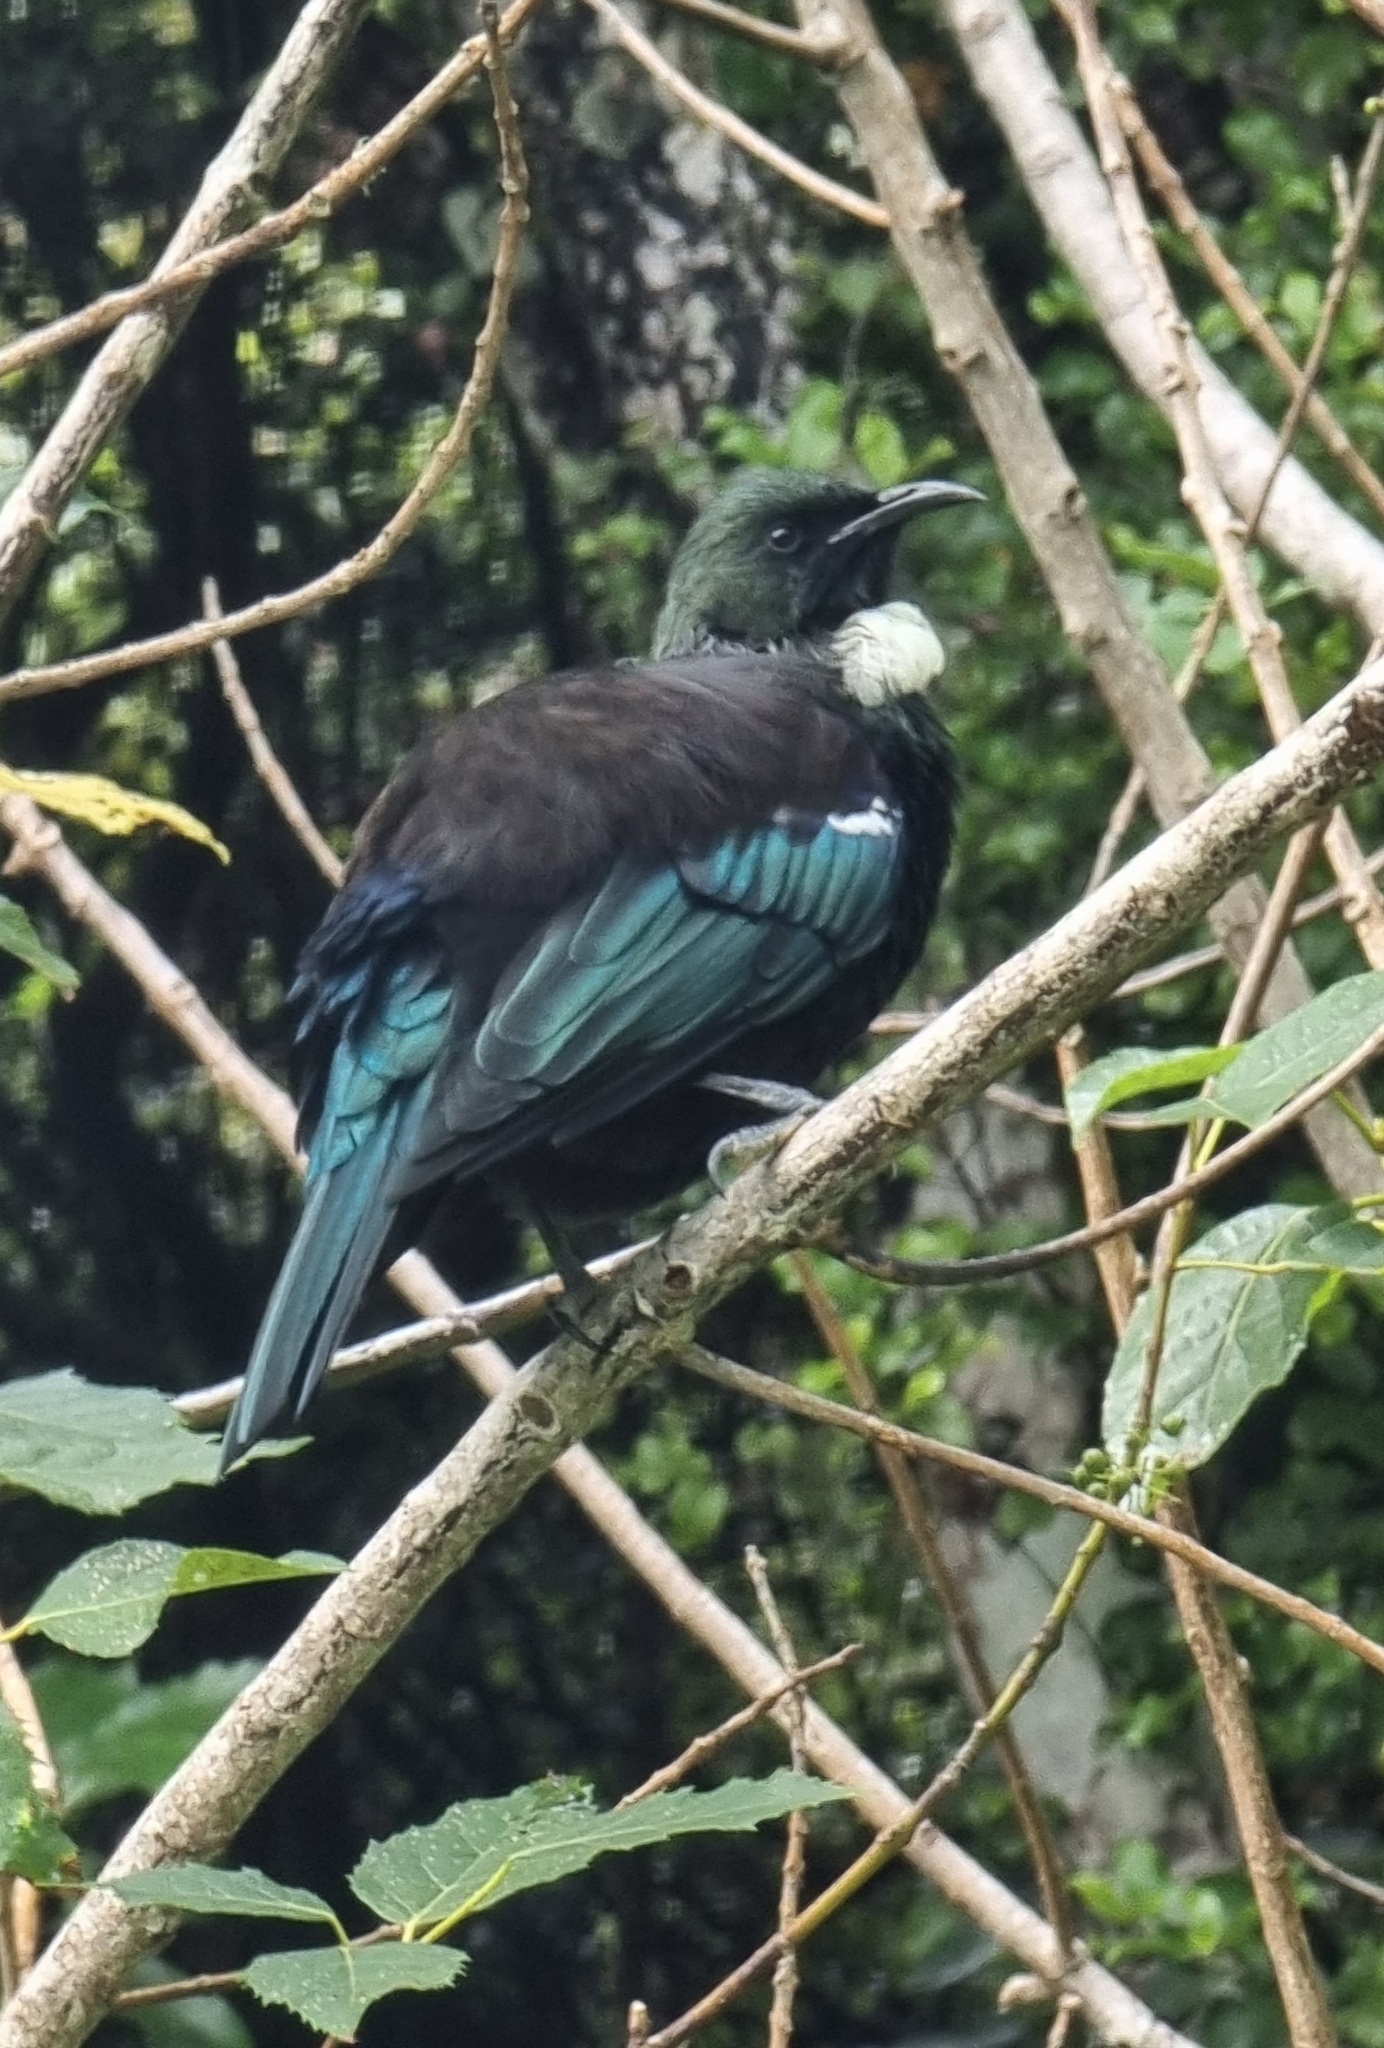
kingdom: Animalia
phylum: Chordata
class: Aves
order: Passeriformes
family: Meliphagidae
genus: Prosthemadera
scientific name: Prosthemadera novaeseelandiae
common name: Tui
